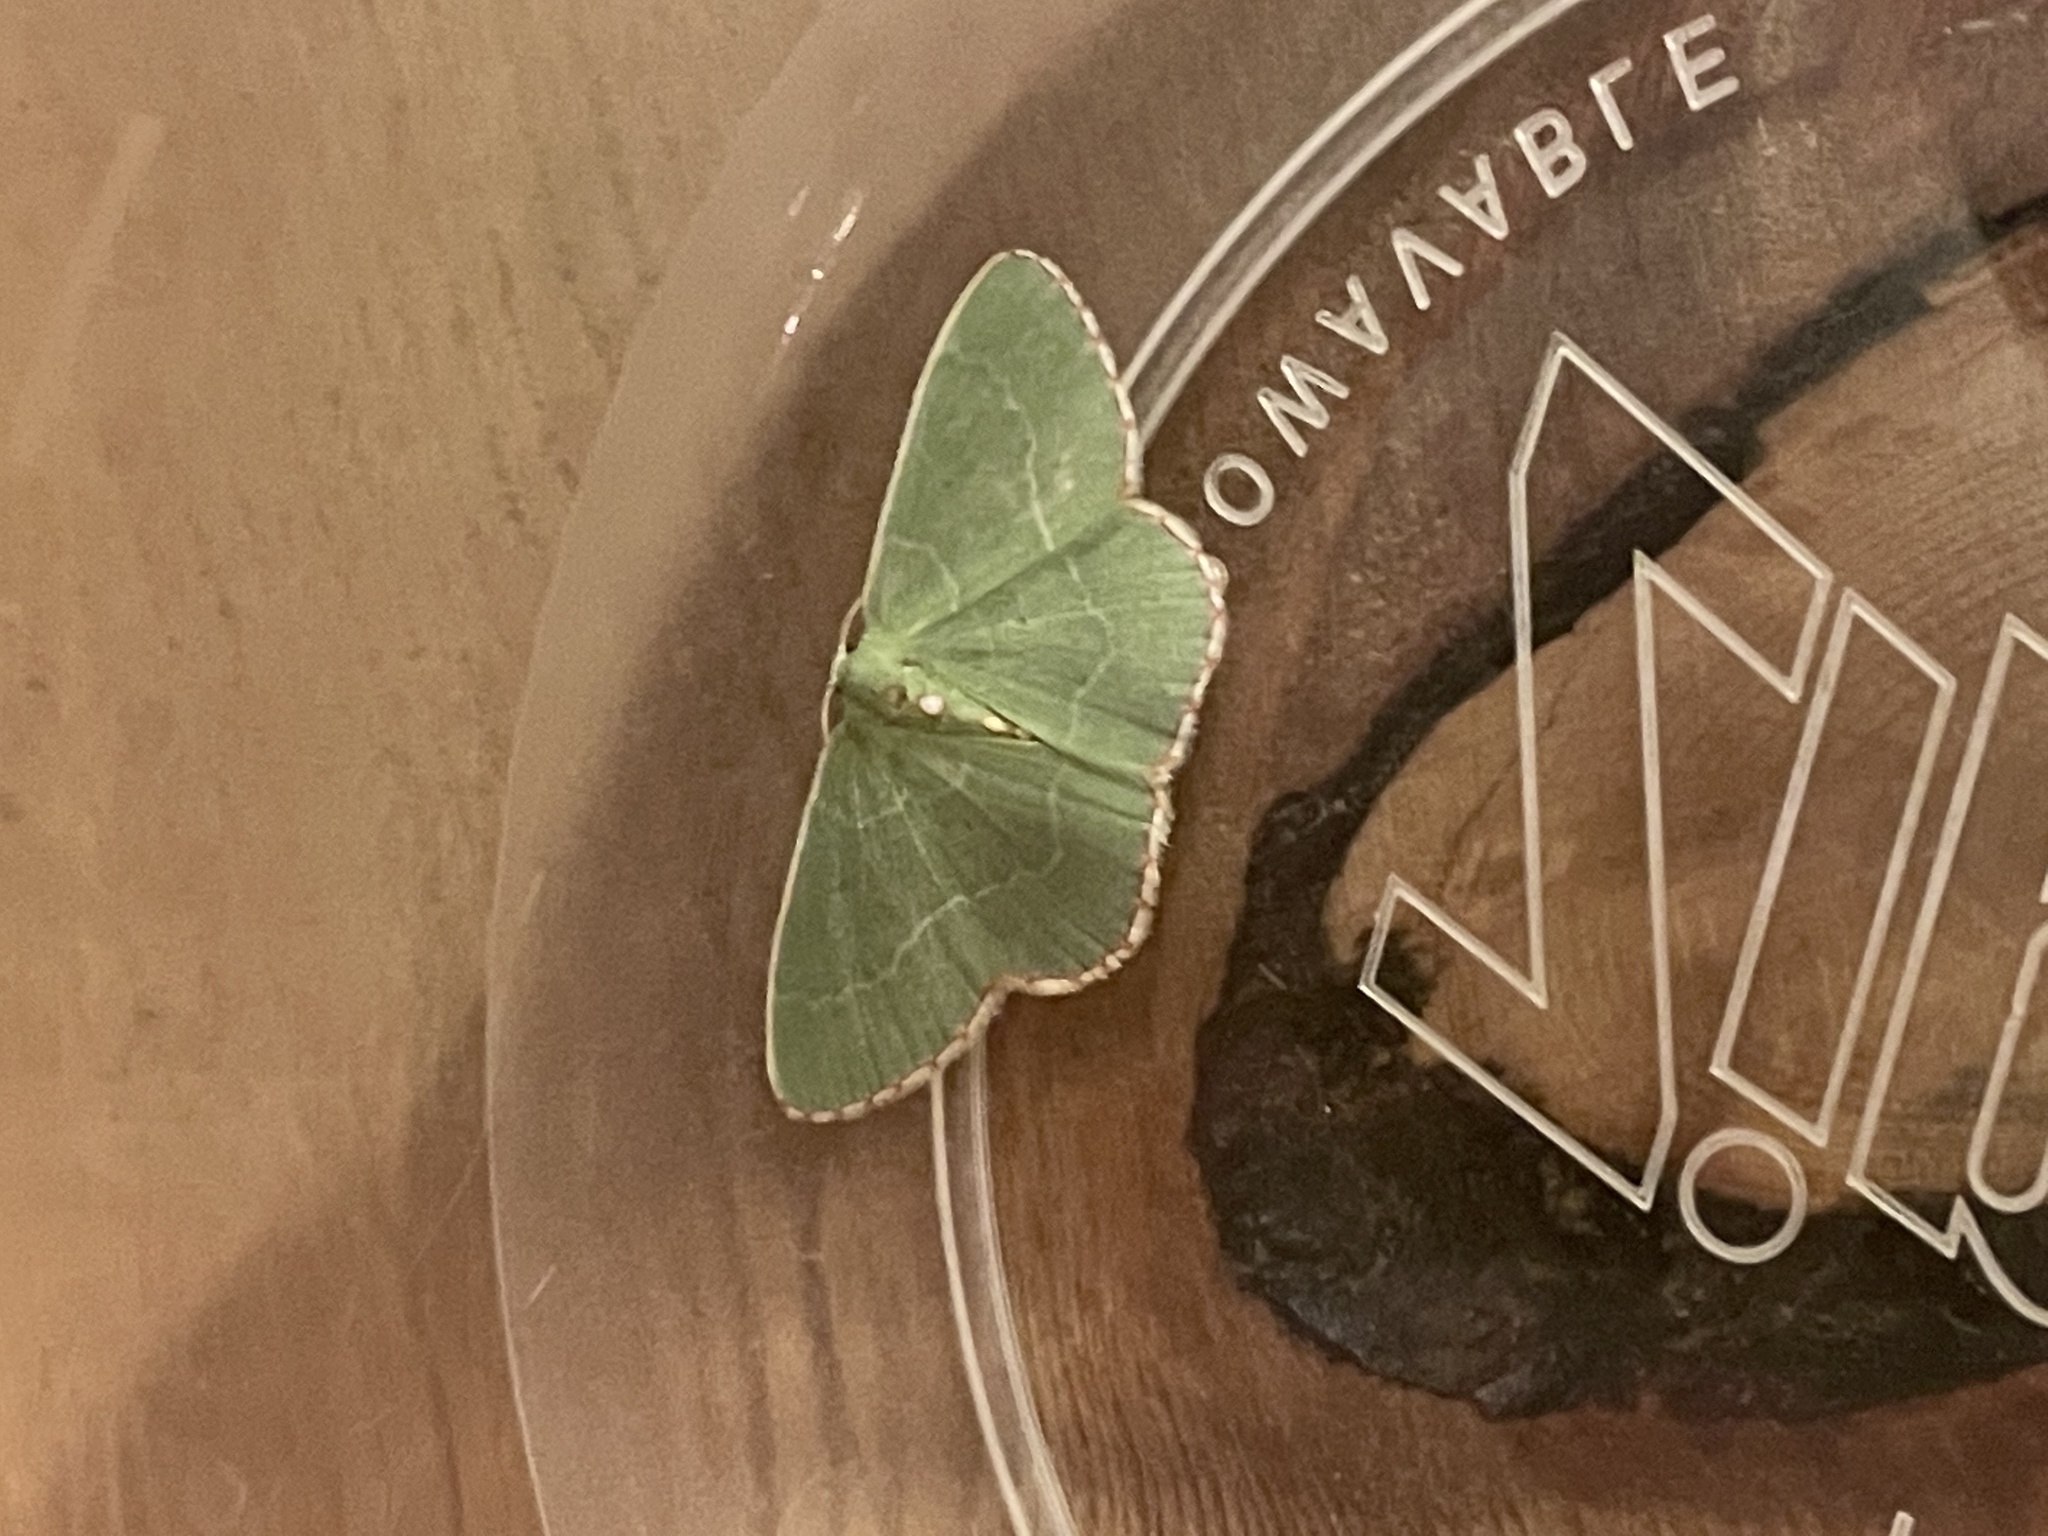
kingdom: Animalia
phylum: Arthropoda
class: Insecta
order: Lepidoptera
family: Geometridae
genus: Nemoria
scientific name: Nemoria lixaria
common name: Red-bordered emerald
